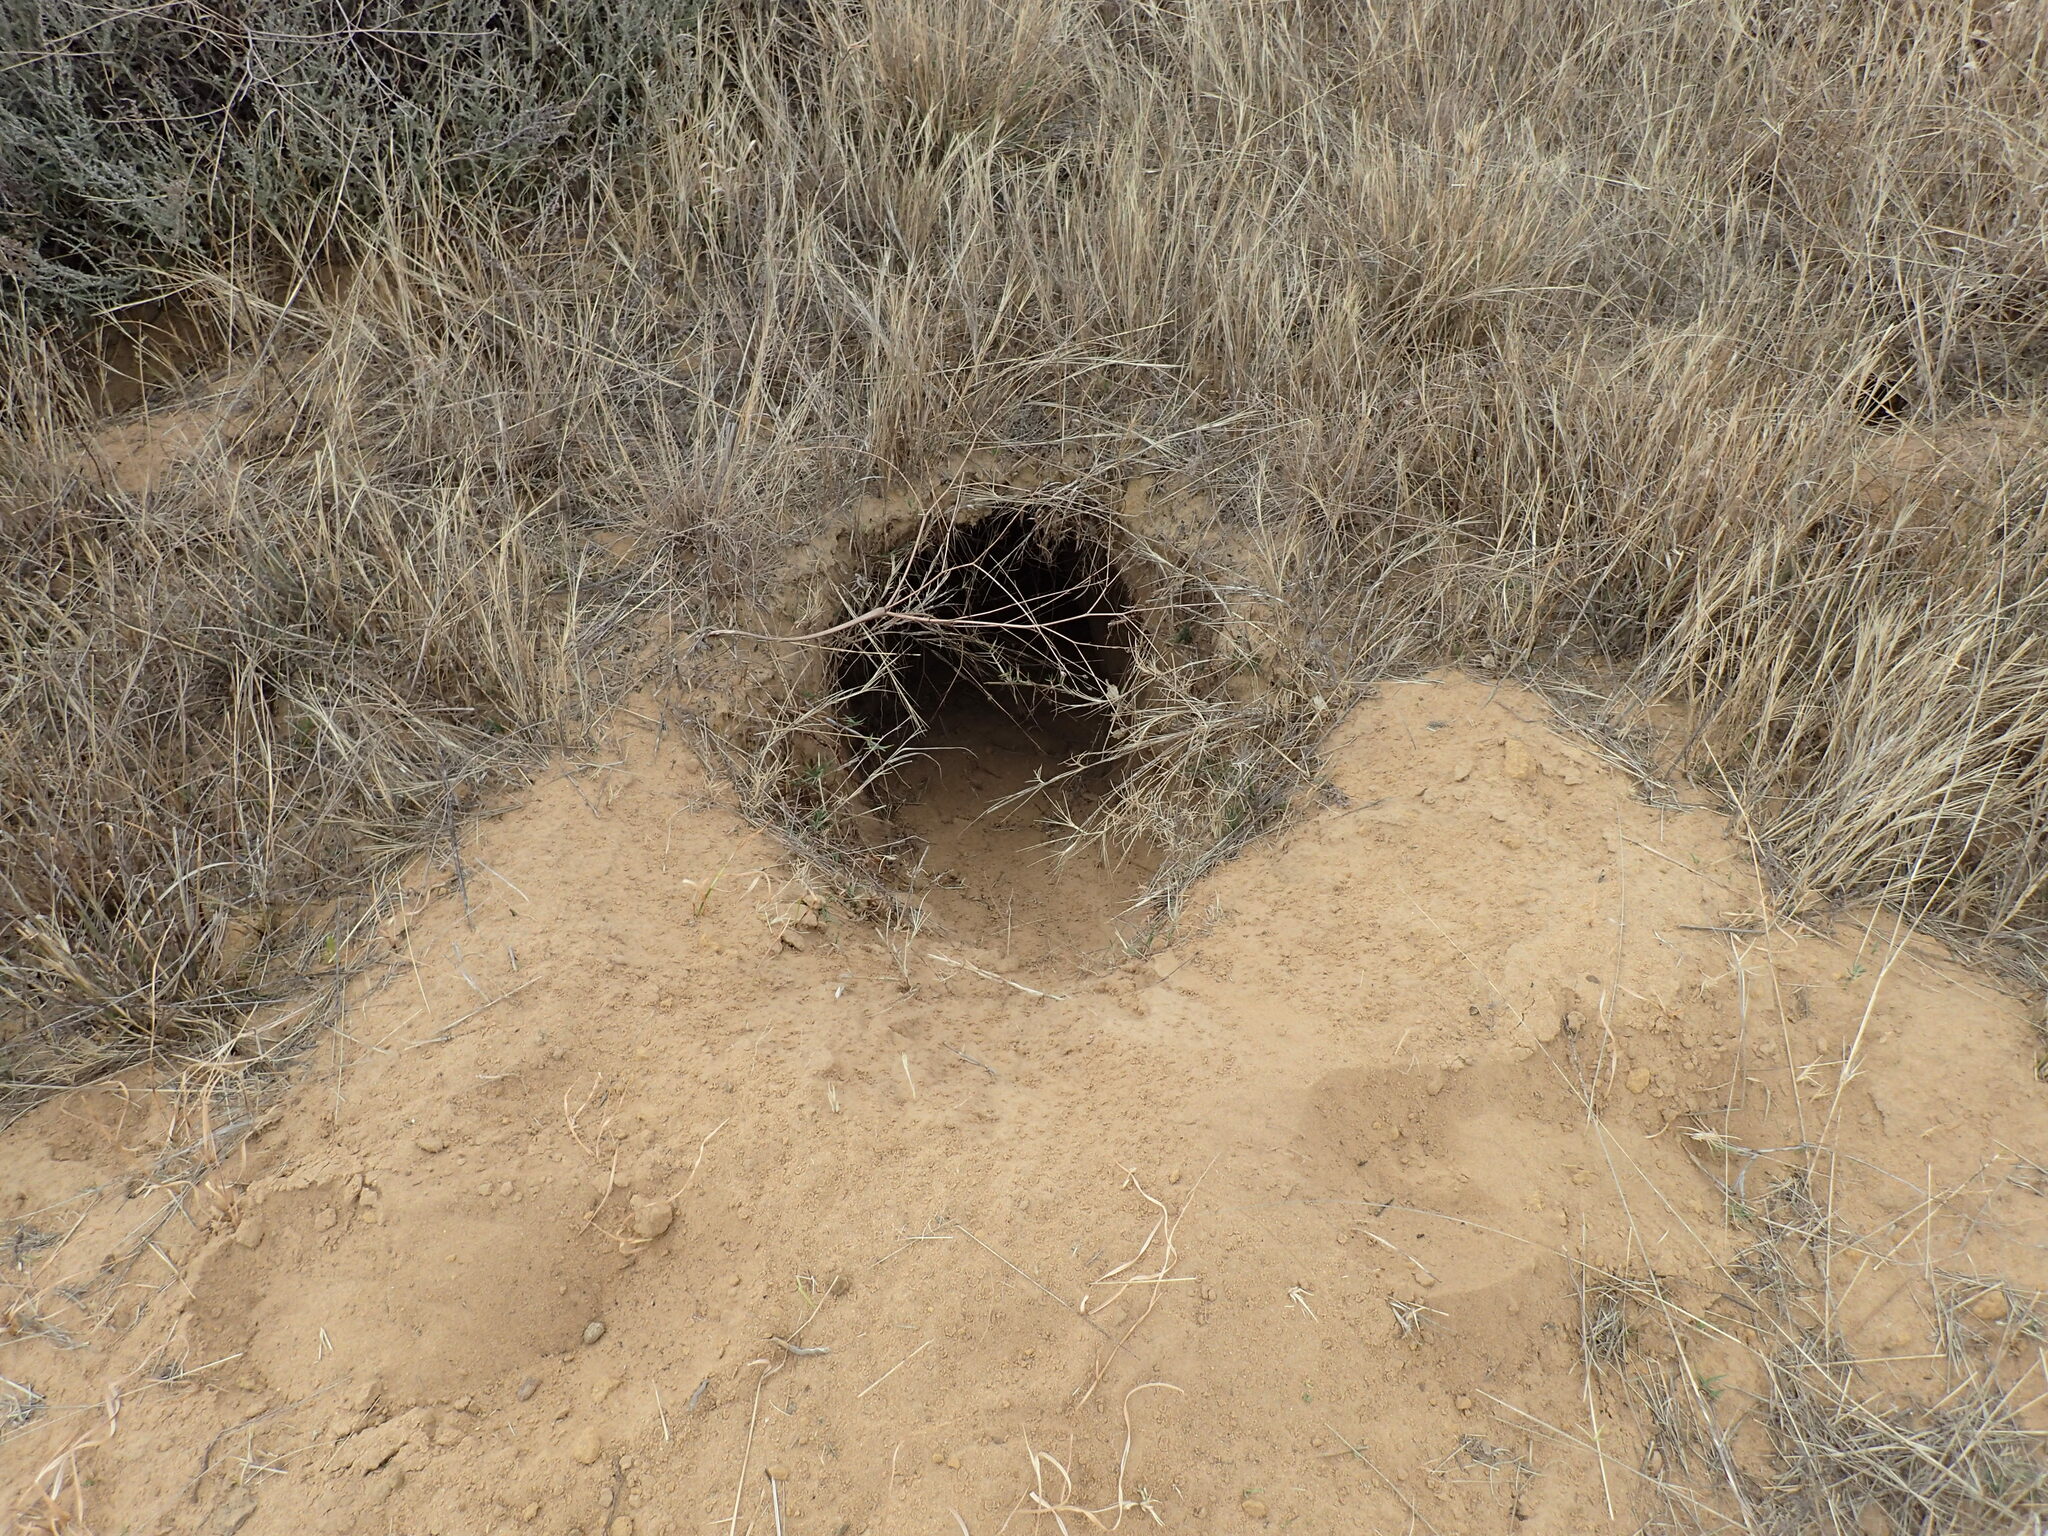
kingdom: Animalia
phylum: Chordata
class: Mammalia
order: Tubulidentata
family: Orycteropodidae
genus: Orycteropus
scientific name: Orycteropus afer
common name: Aardvark
